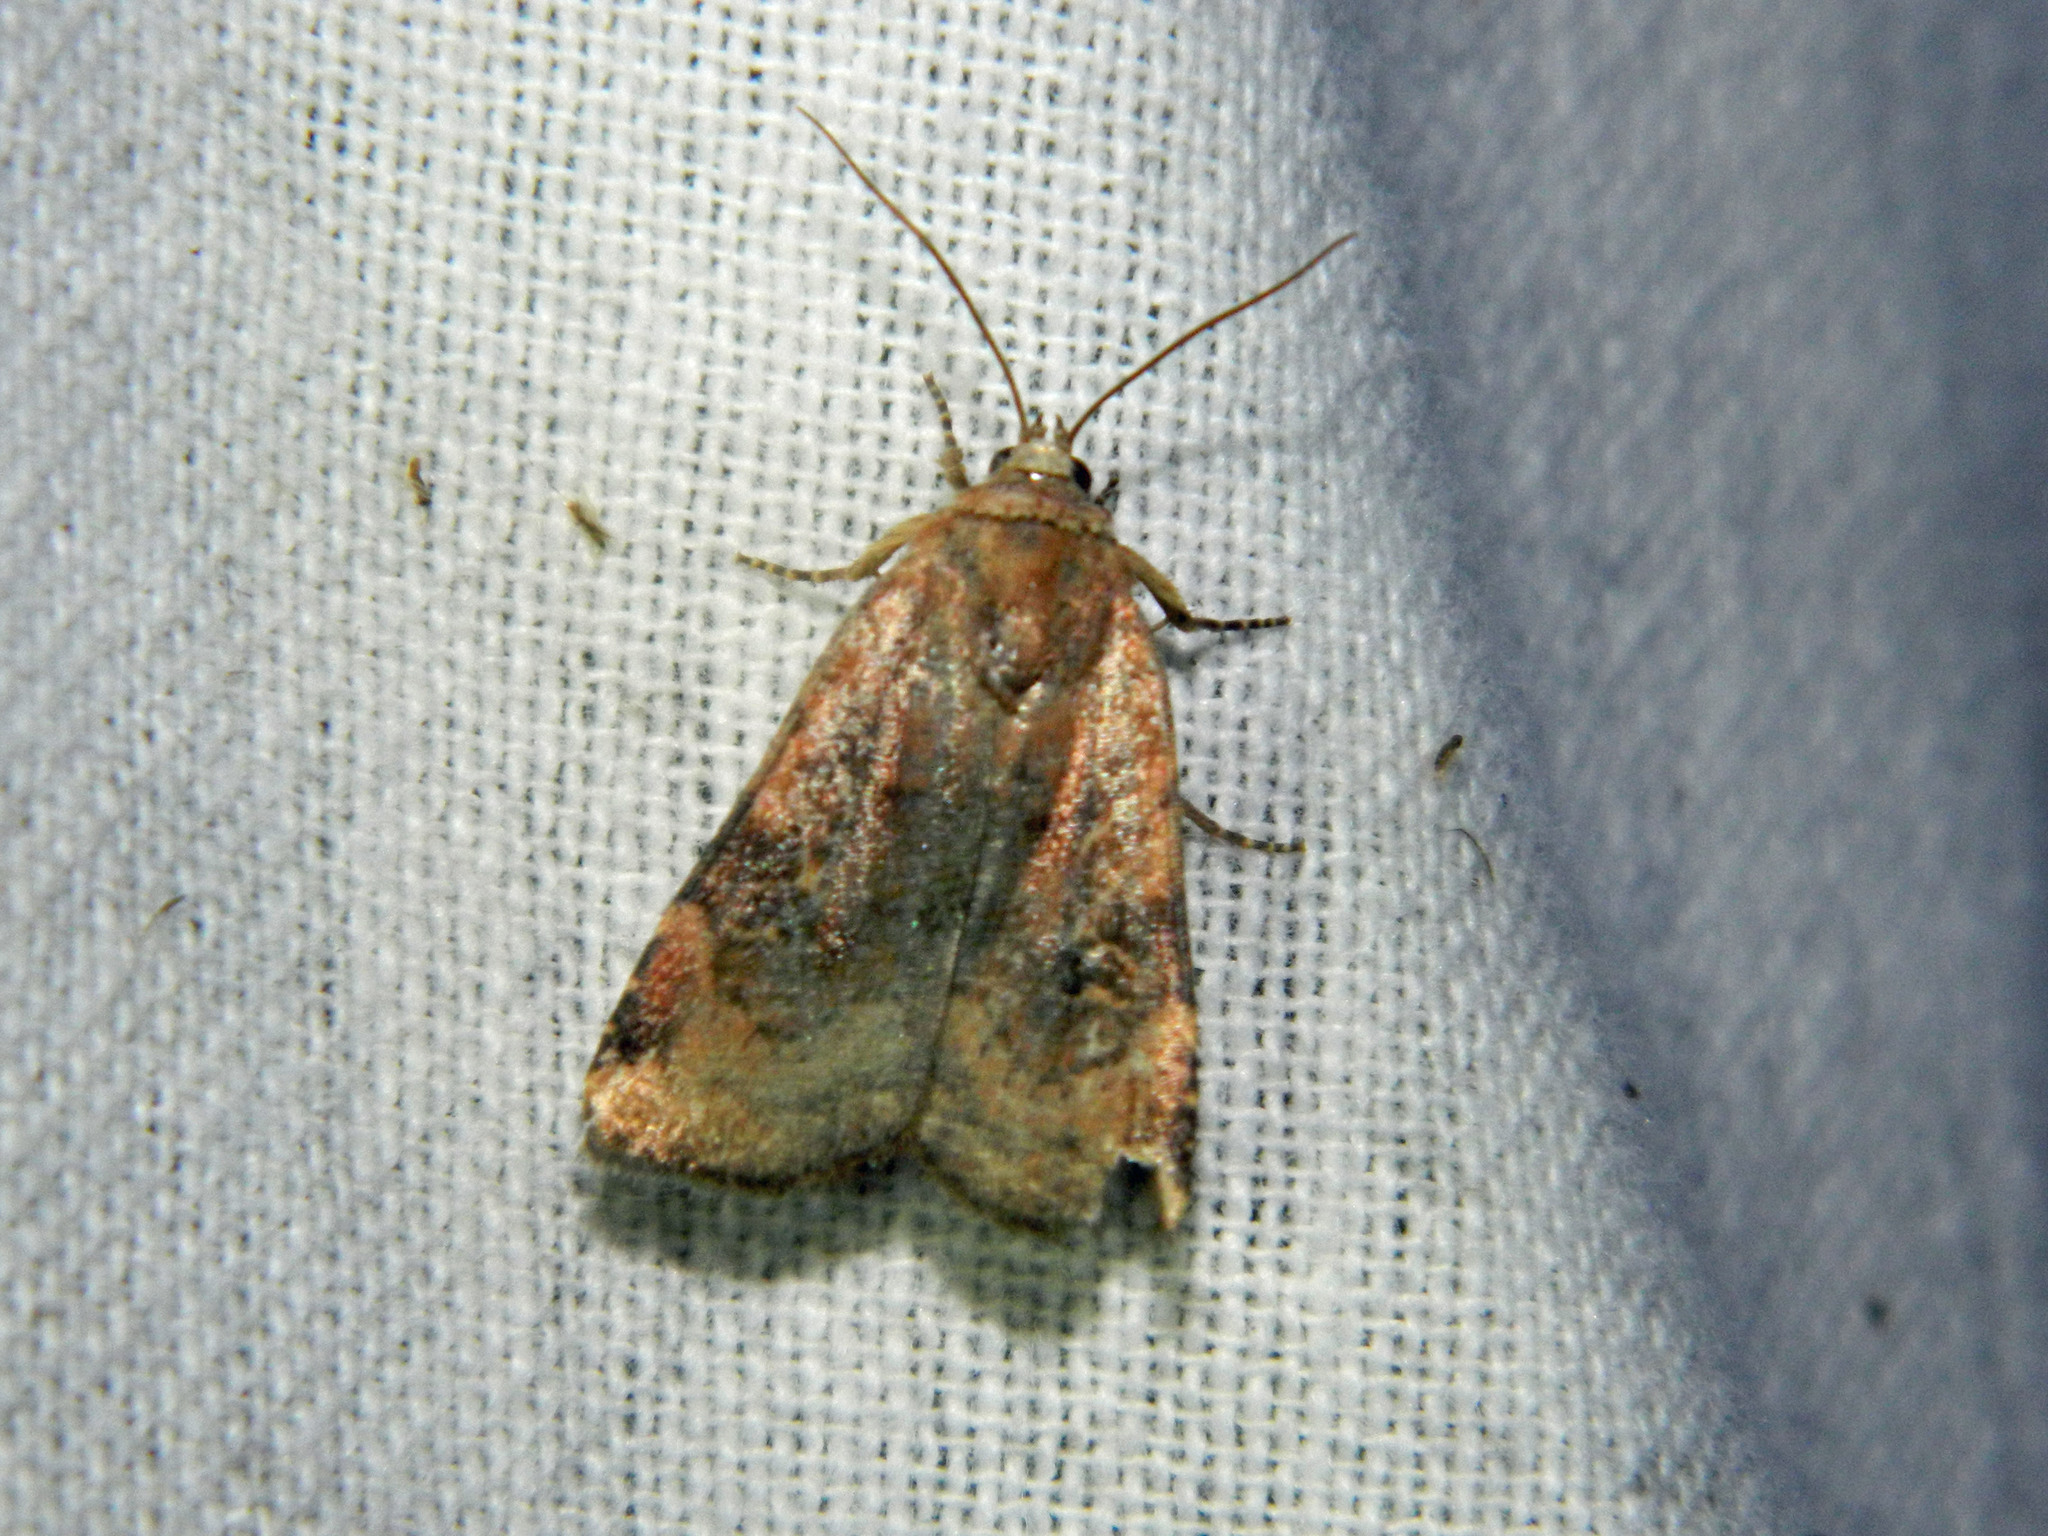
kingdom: Animalia
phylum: Arthropoda
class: Insecta
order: Lepidoptera
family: Noctuidae
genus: Cryptocala
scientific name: Cryptocala acadiensis
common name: Catocaline dart
